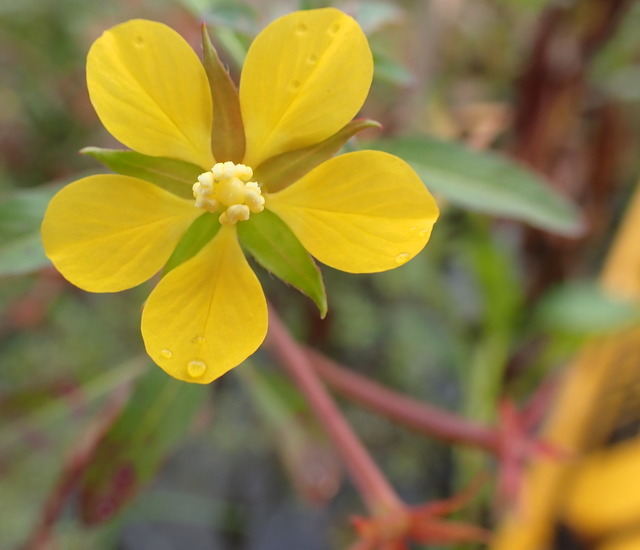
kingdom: Plantae
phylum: Tracheophyta
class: Magnoliopsida
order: Myrtales
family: Onagraceae
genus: Ludwigia
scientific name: Ludwigia leptocarpa
